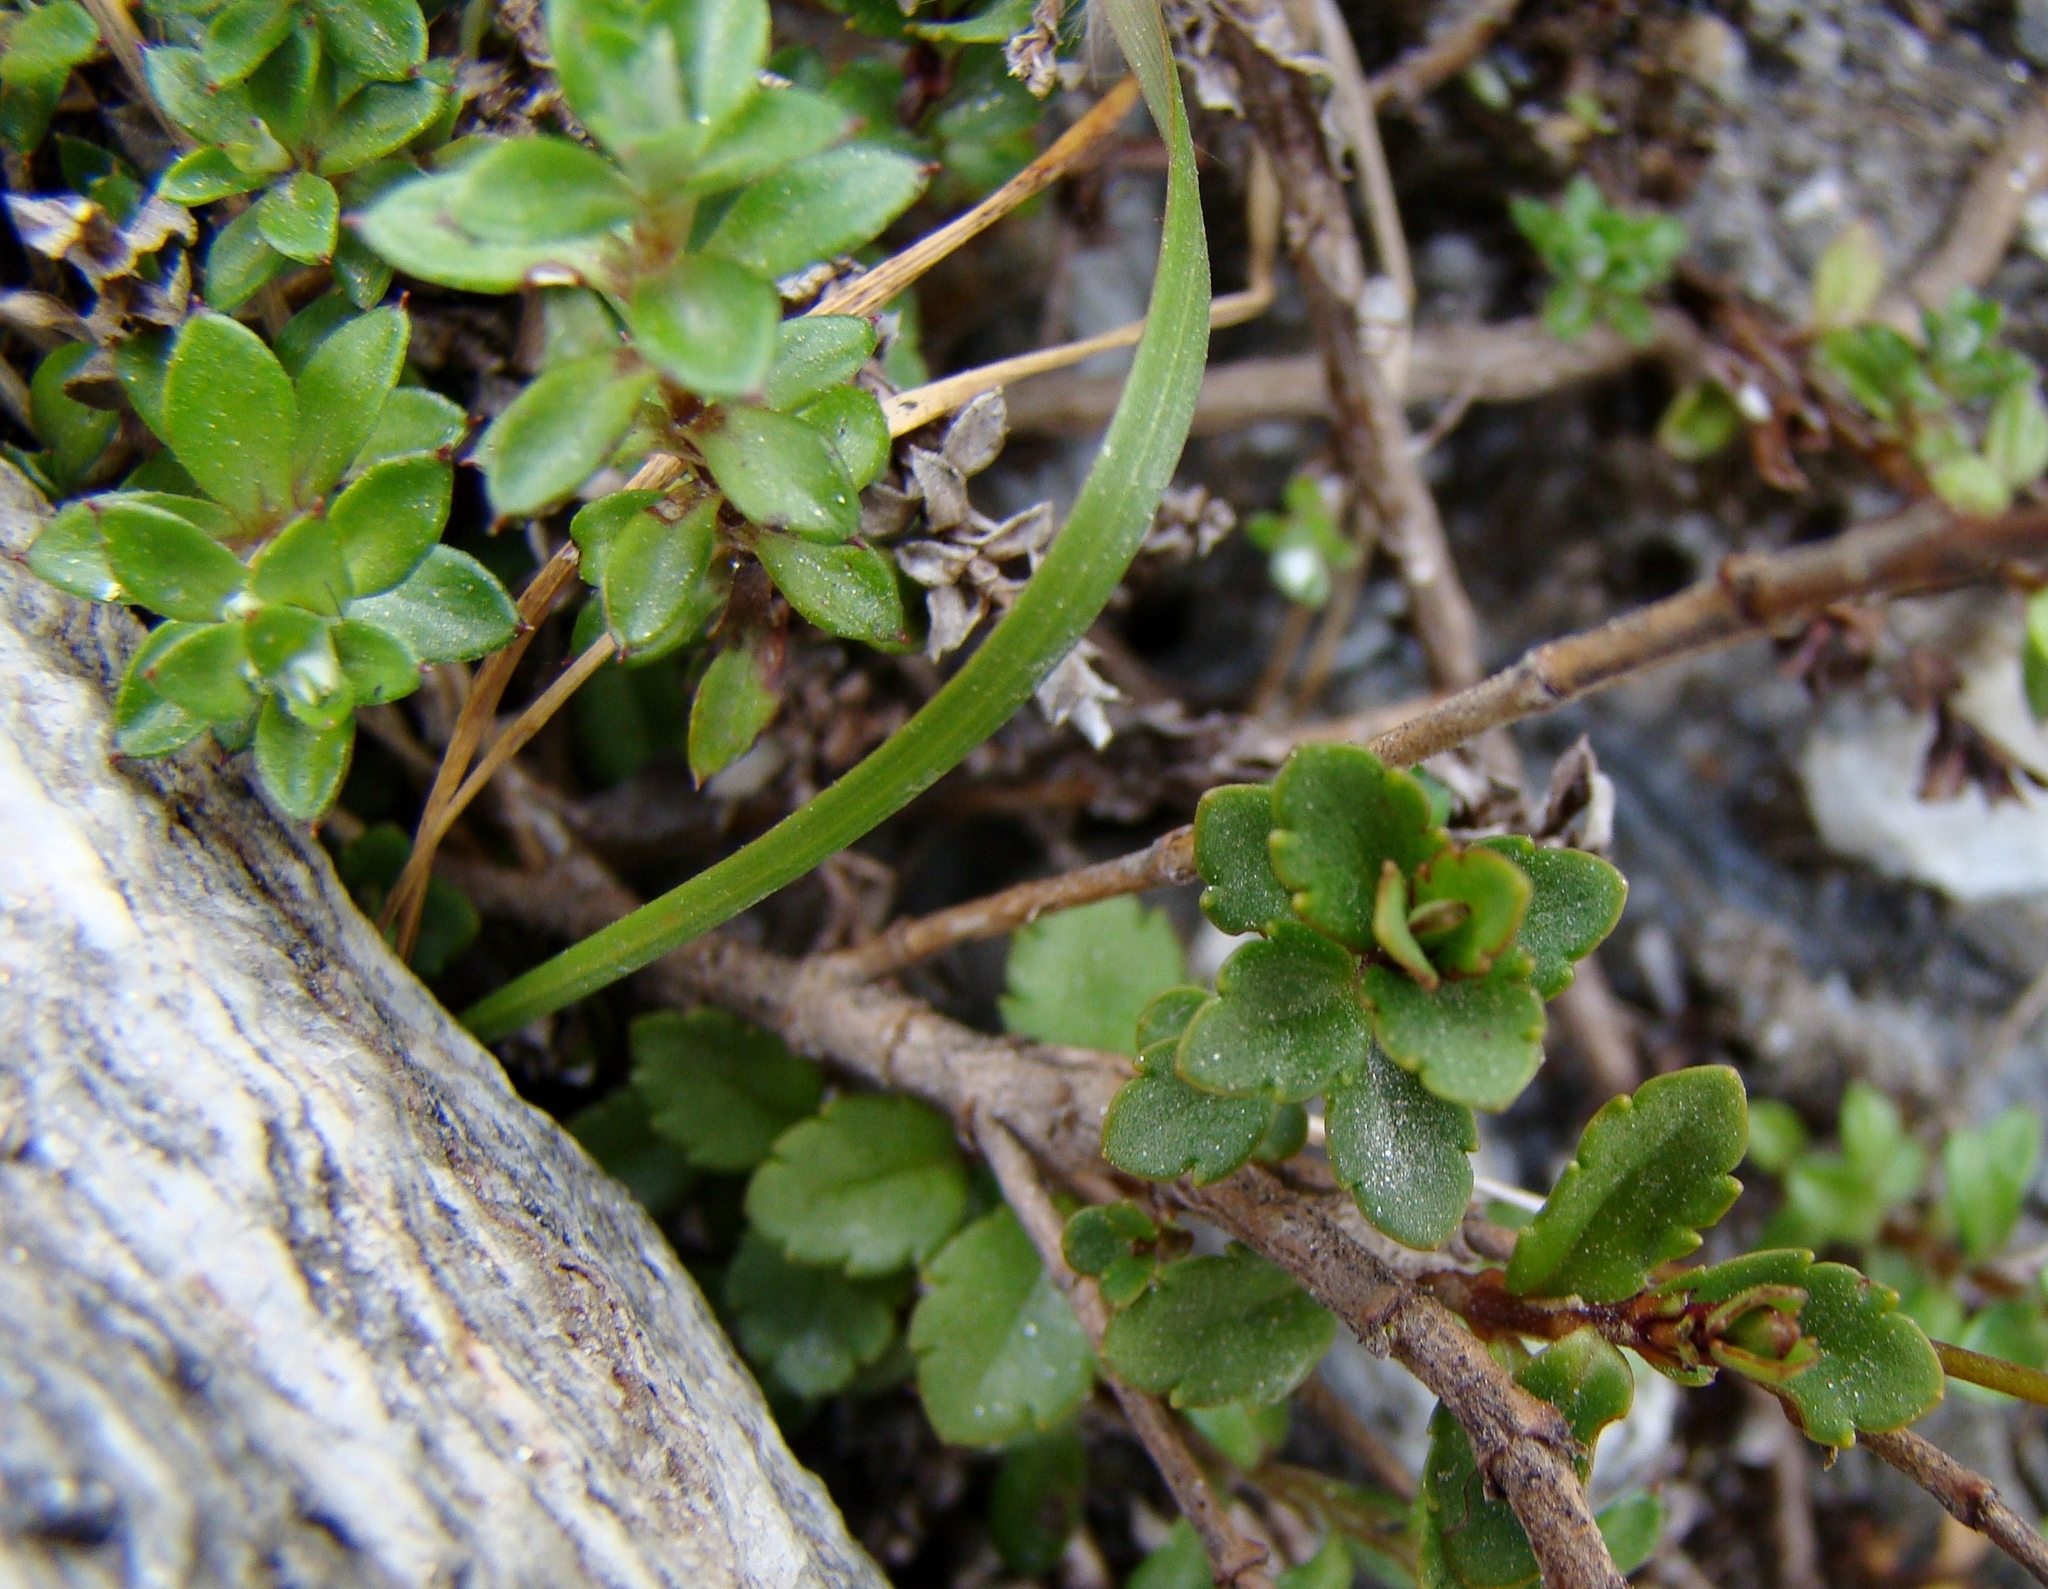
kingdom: Plantae
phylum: Tracheophyta
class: Magnoliopsida
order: Lamiales
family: Plantaginaceae
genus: Veronica
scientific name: Veronica lyallii
